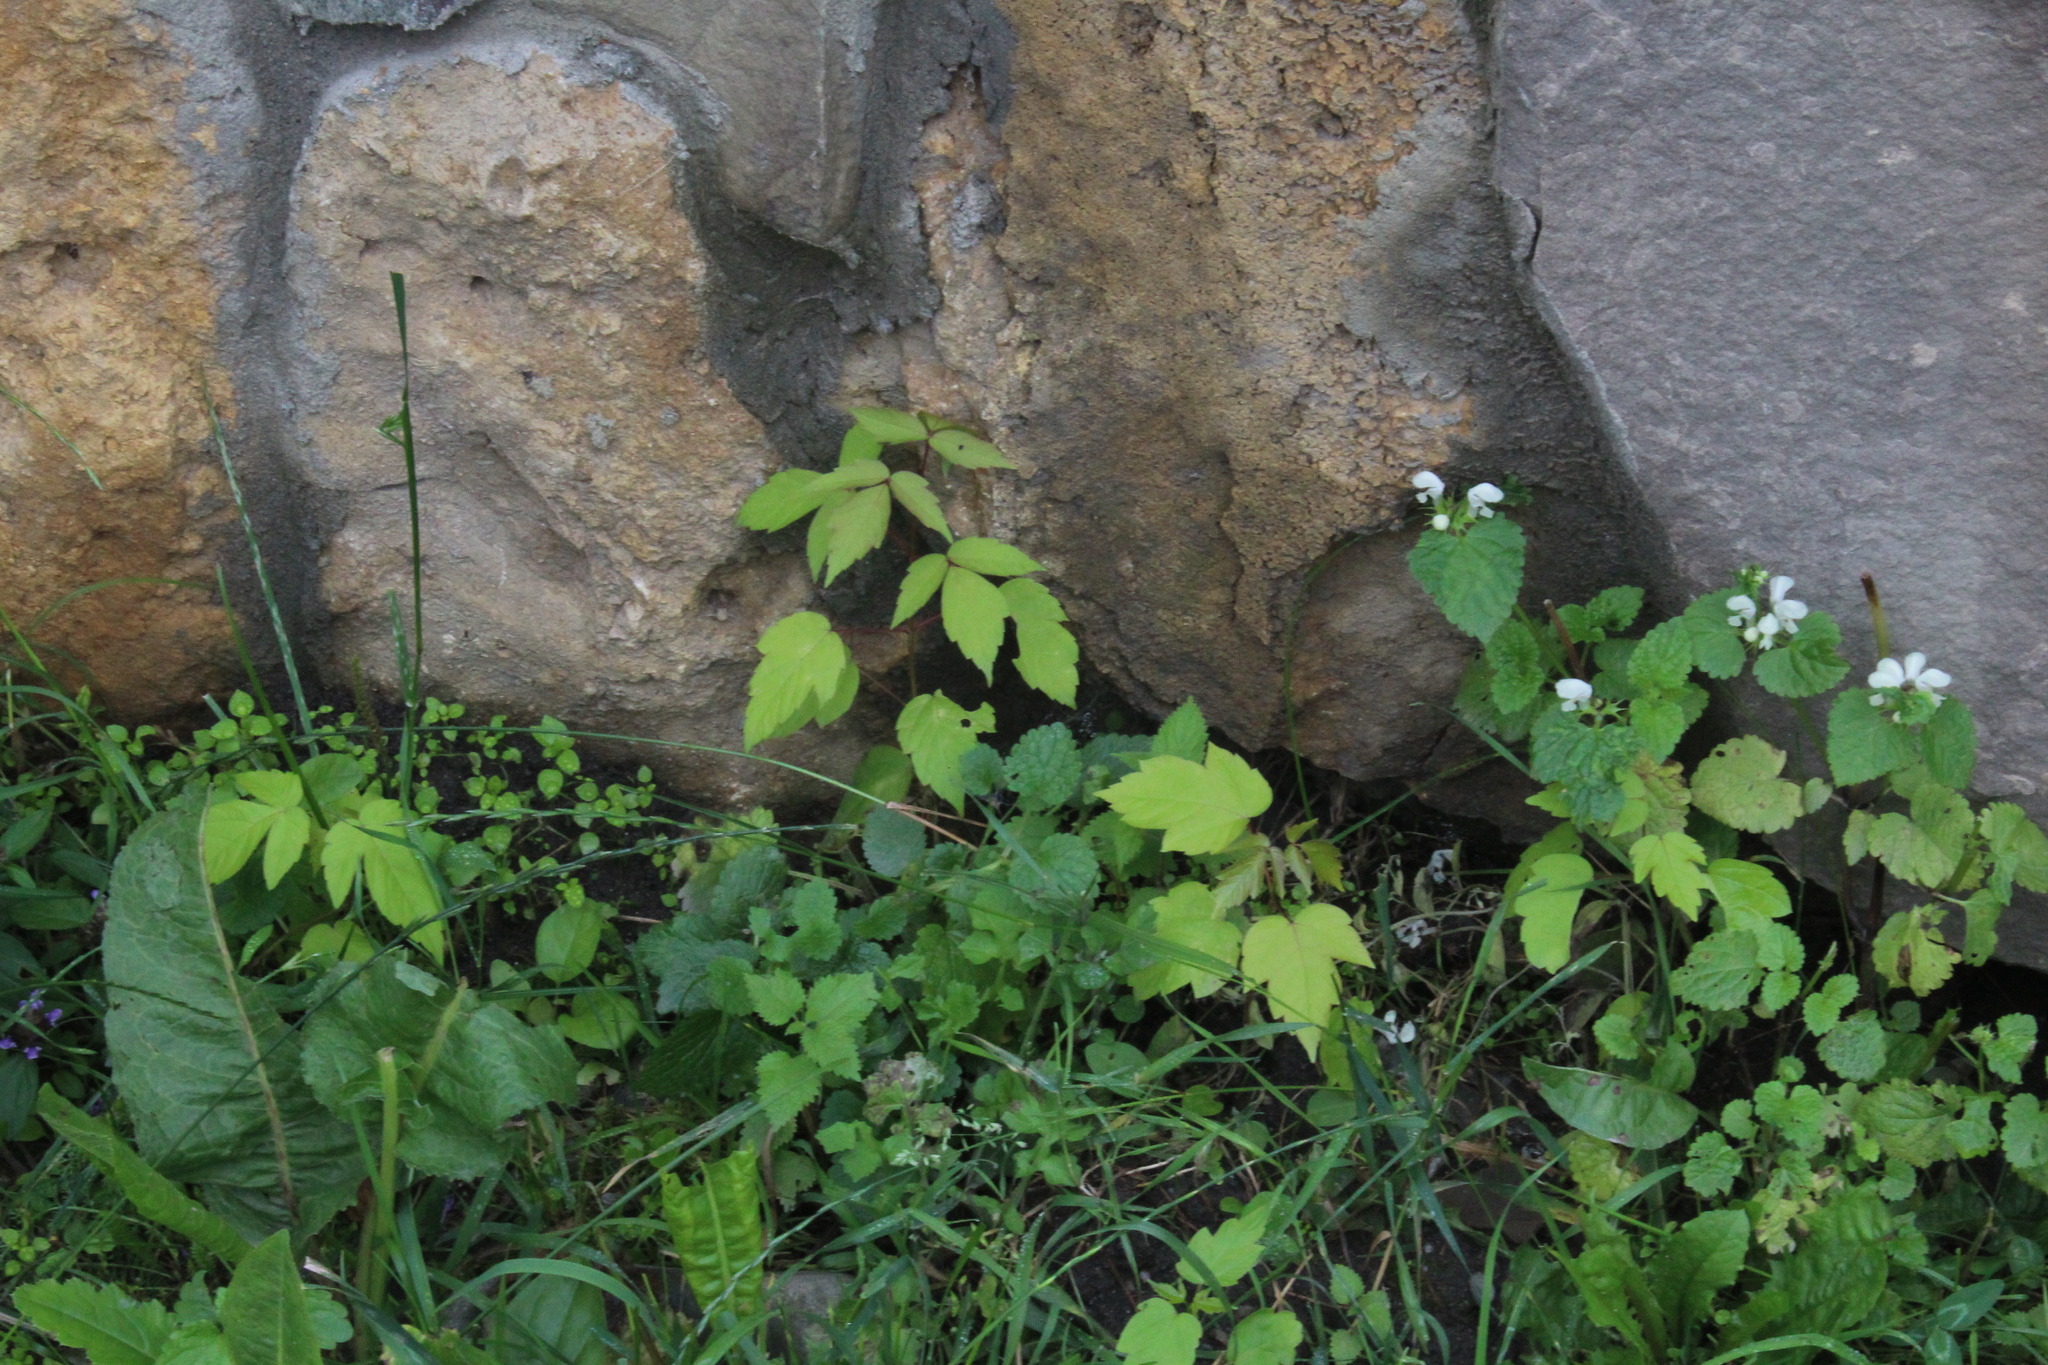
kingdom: Plantae
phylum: Tracheophyta
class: Magnoliopsida
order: Sapindales
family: Sapindaceae
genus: Acer
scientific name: Acer negundo
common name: Ashleaf maple
